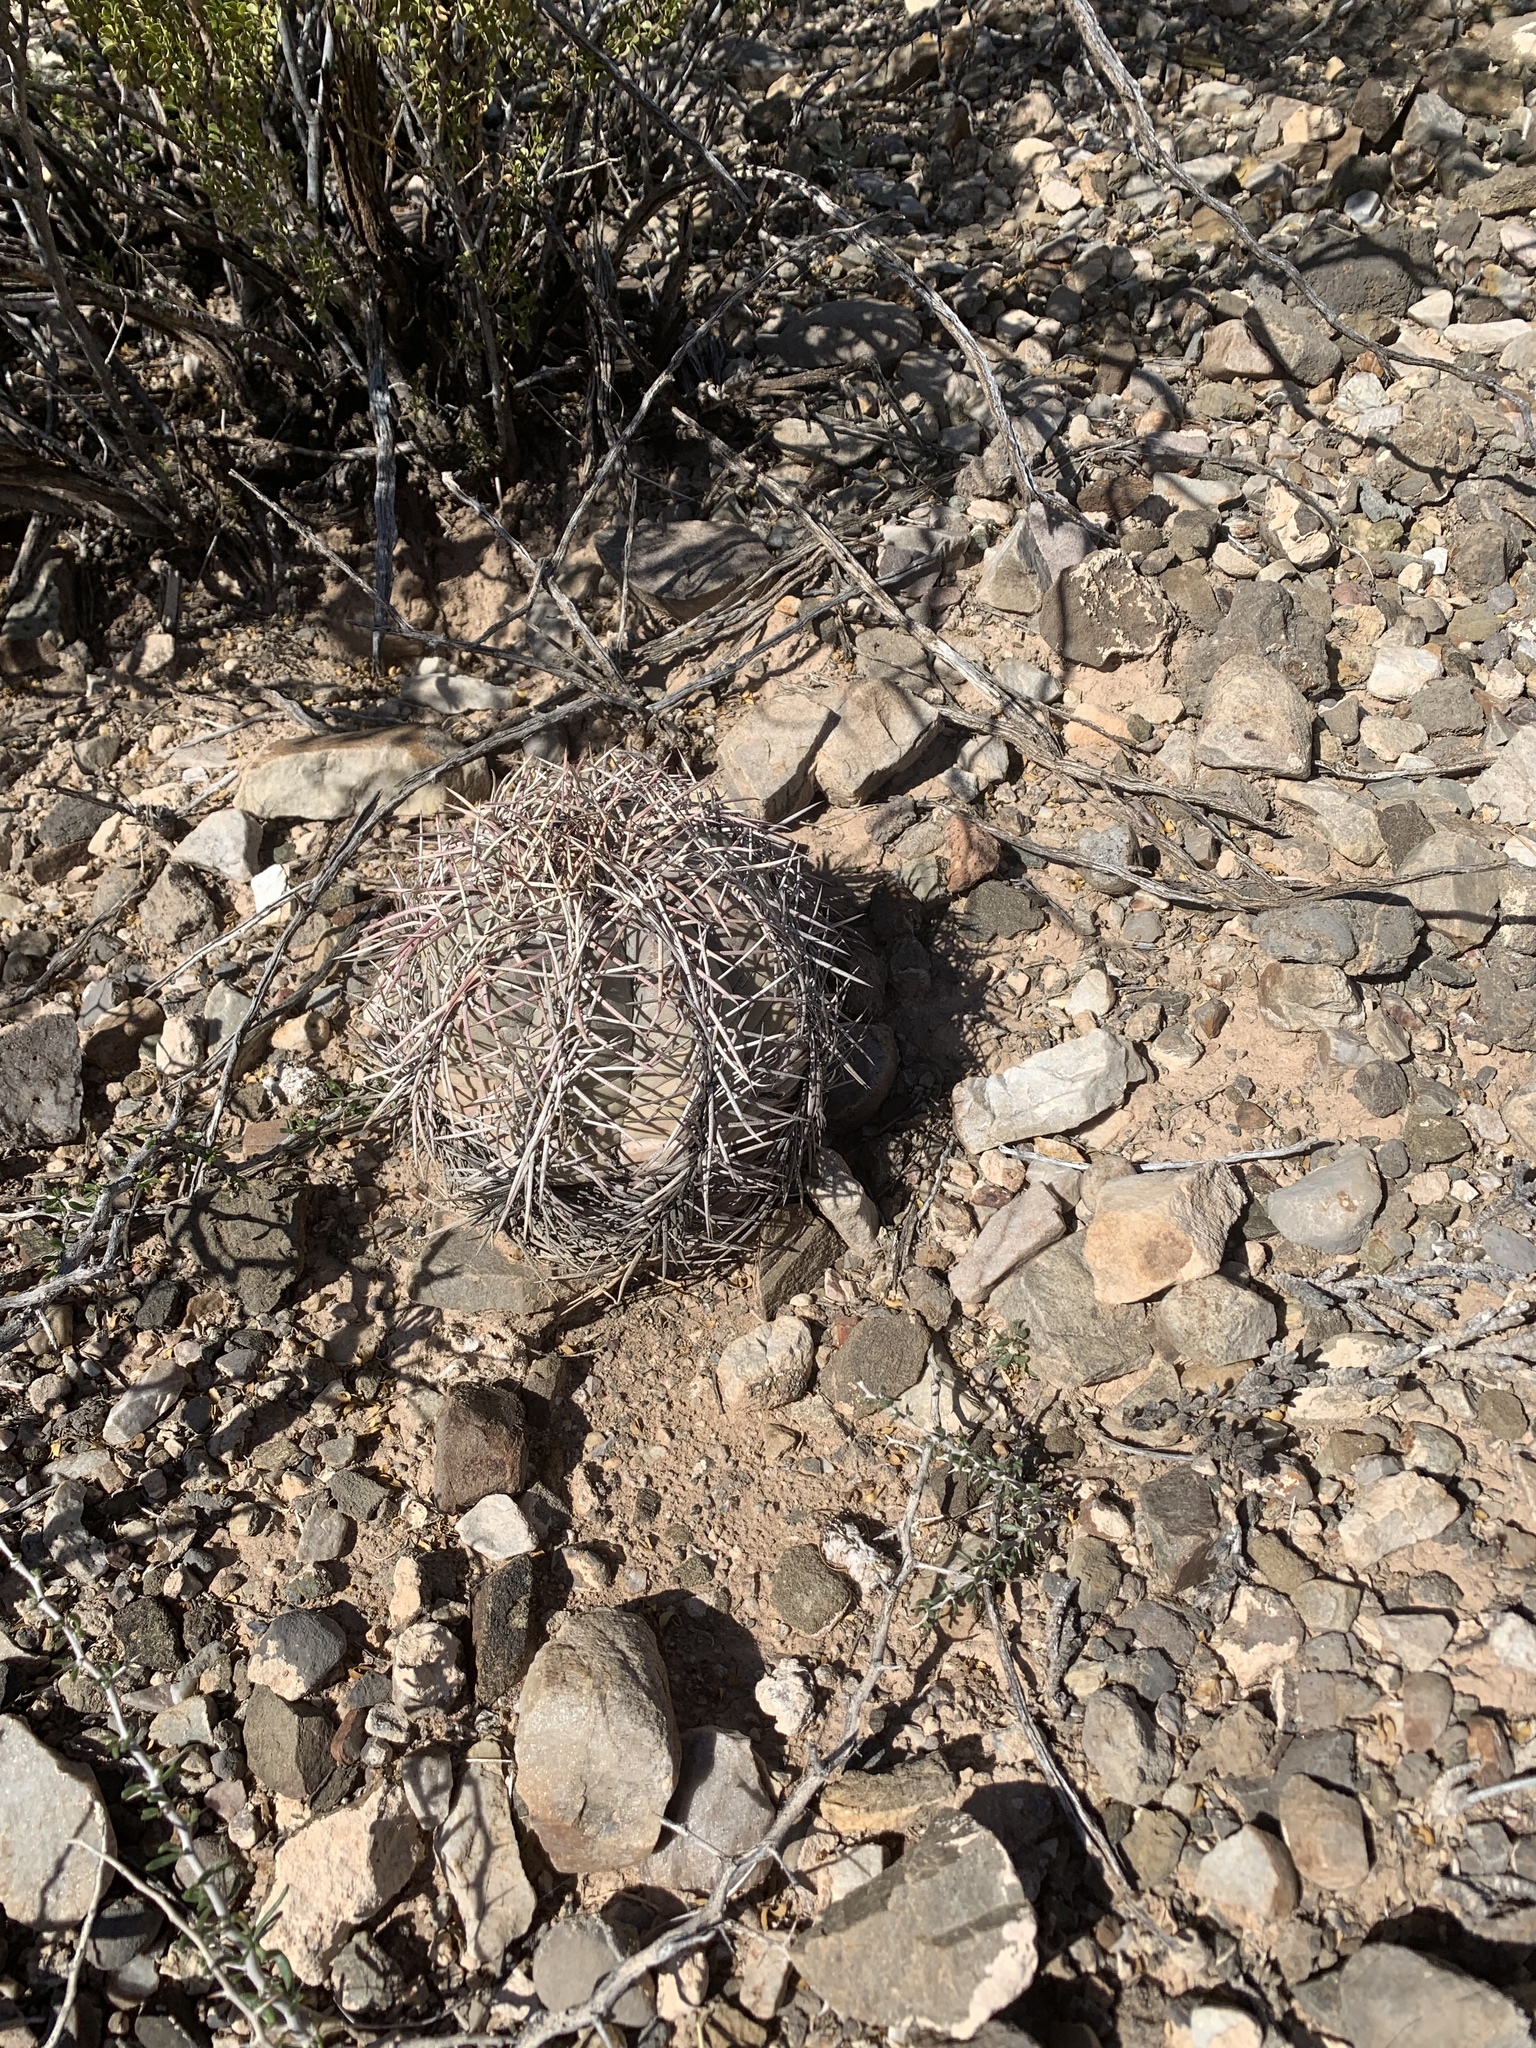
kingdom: Plantae
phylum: Tracheophyta
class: Magnoliopsida
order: Caryophyllales
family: Cactaceae
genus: Echinocactus
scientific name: Echinocactus horizonthalonius
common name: Devilshead
